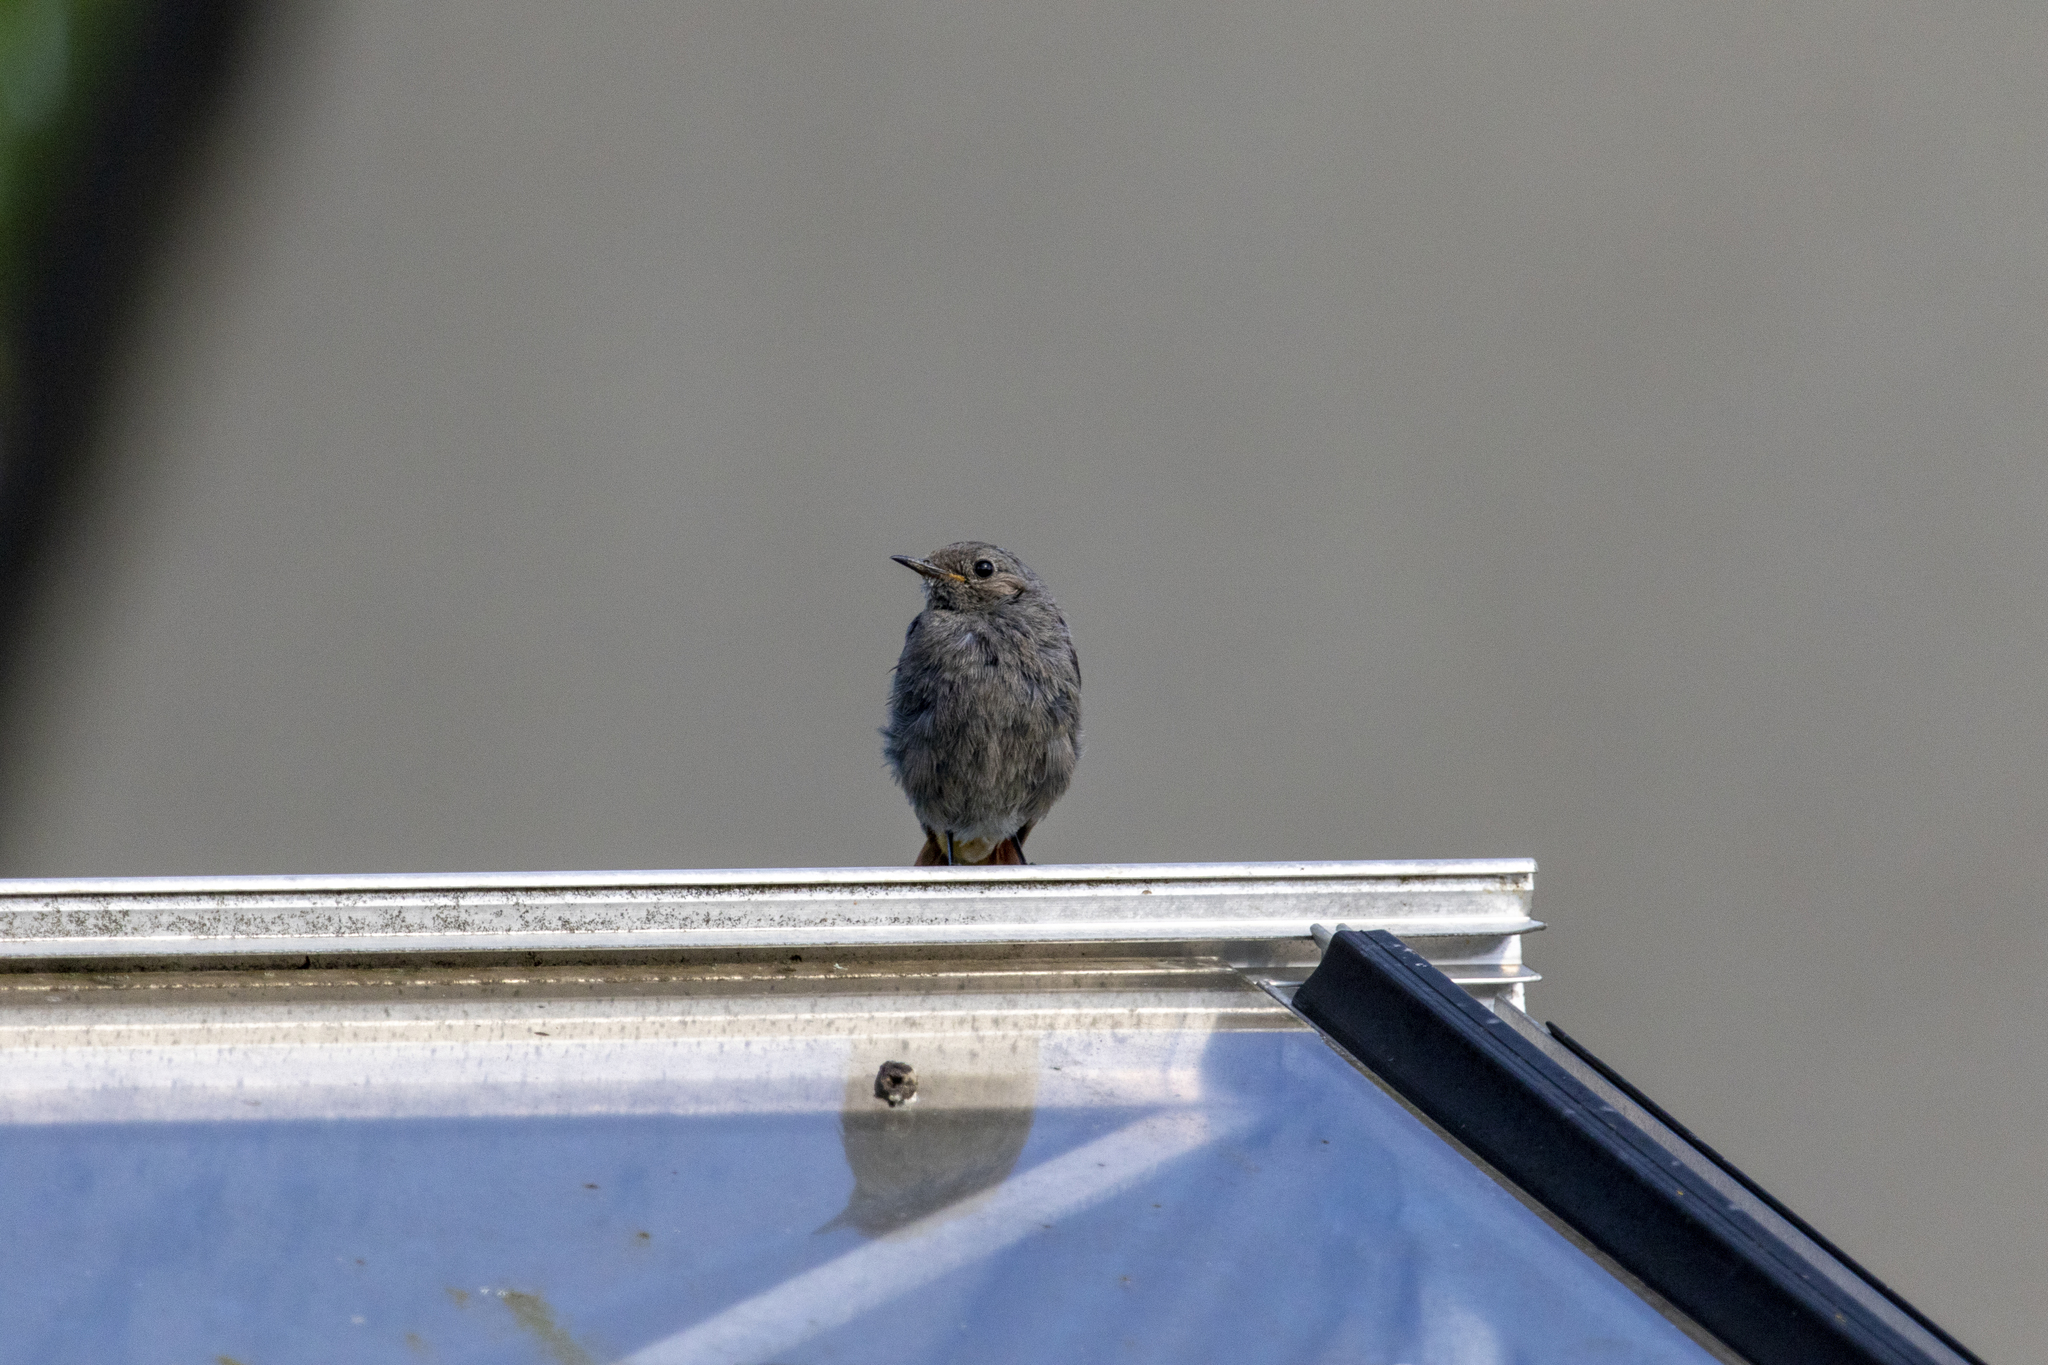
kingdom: Animalia
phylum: Chordata
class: Aves
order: Passeriformes
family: Muscicapidae
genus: Phoenicurus
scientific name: Phoenicurus ochruros
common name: Black redstart
